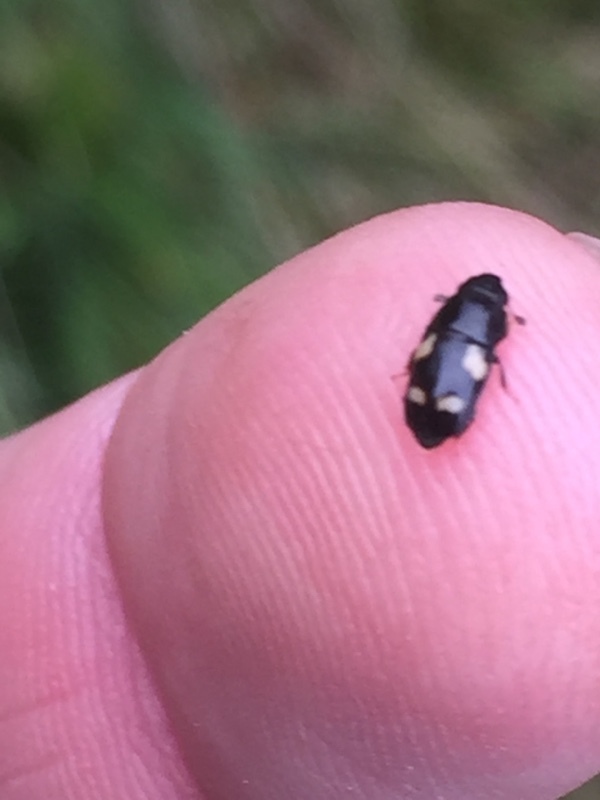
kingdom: Animalia
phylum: Arthropoda
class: Insecta
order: Coleoptera
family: Nitidulidae
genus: Glischrochilus
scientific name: Glischrochilus quadrisignatus
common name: Picnic beetle
